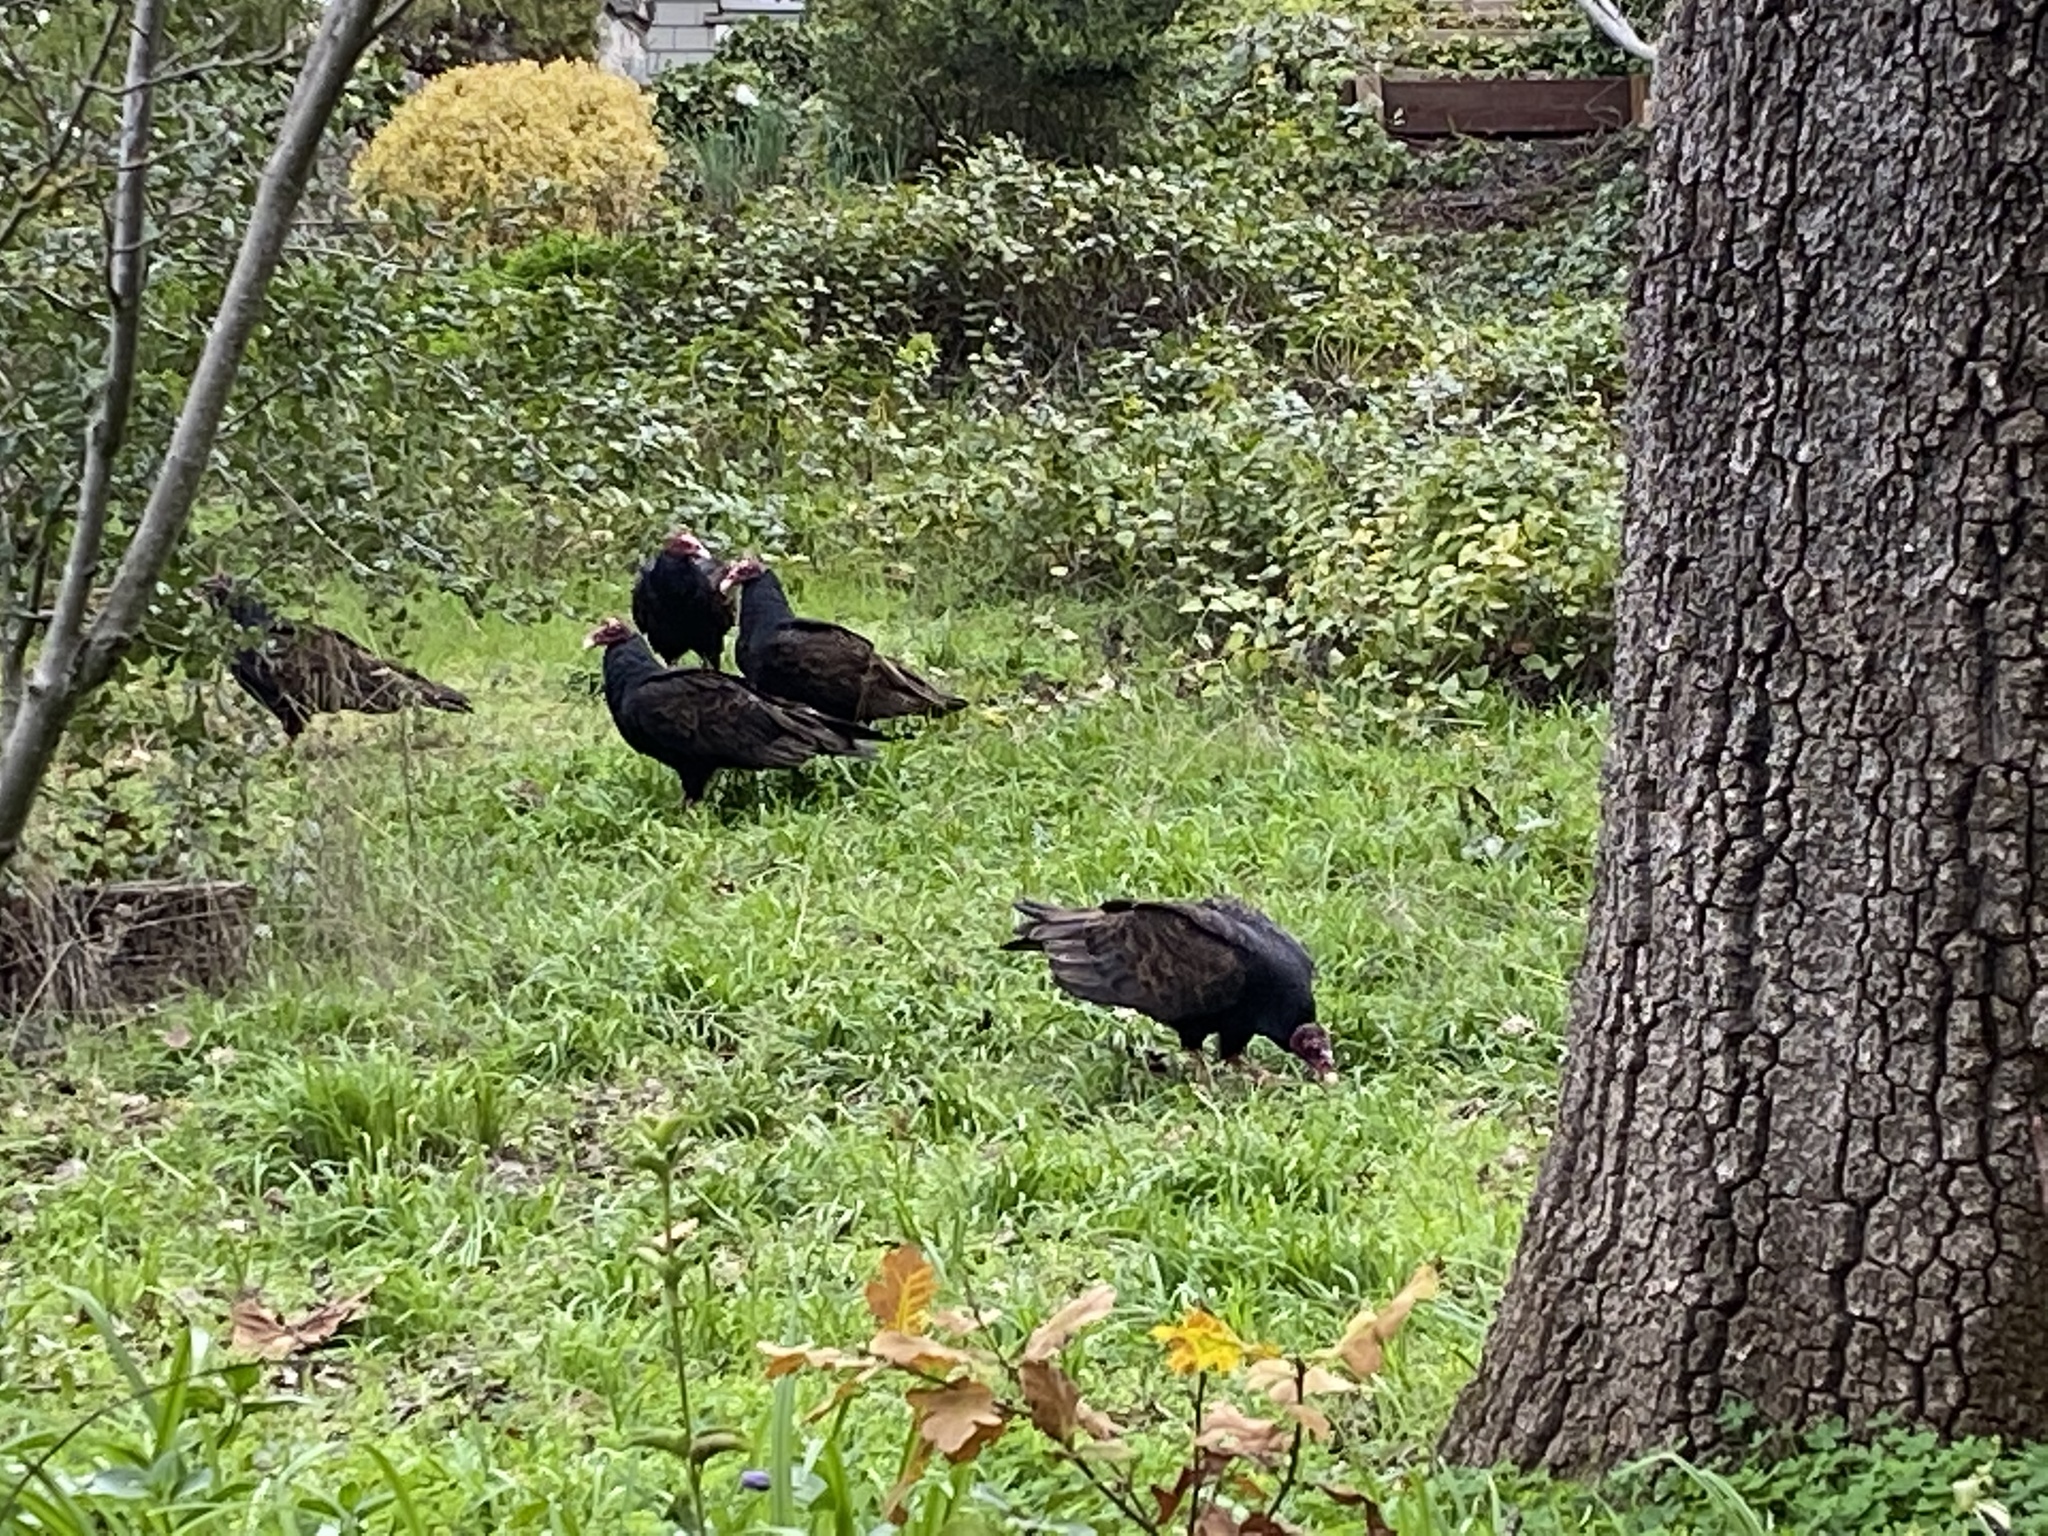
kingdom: Animalia
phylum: Chordata
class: Aves
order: Accipitriformes
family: Cathartidae
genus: Cathartes
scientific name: Cathartes aura
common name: Turkey vulture
